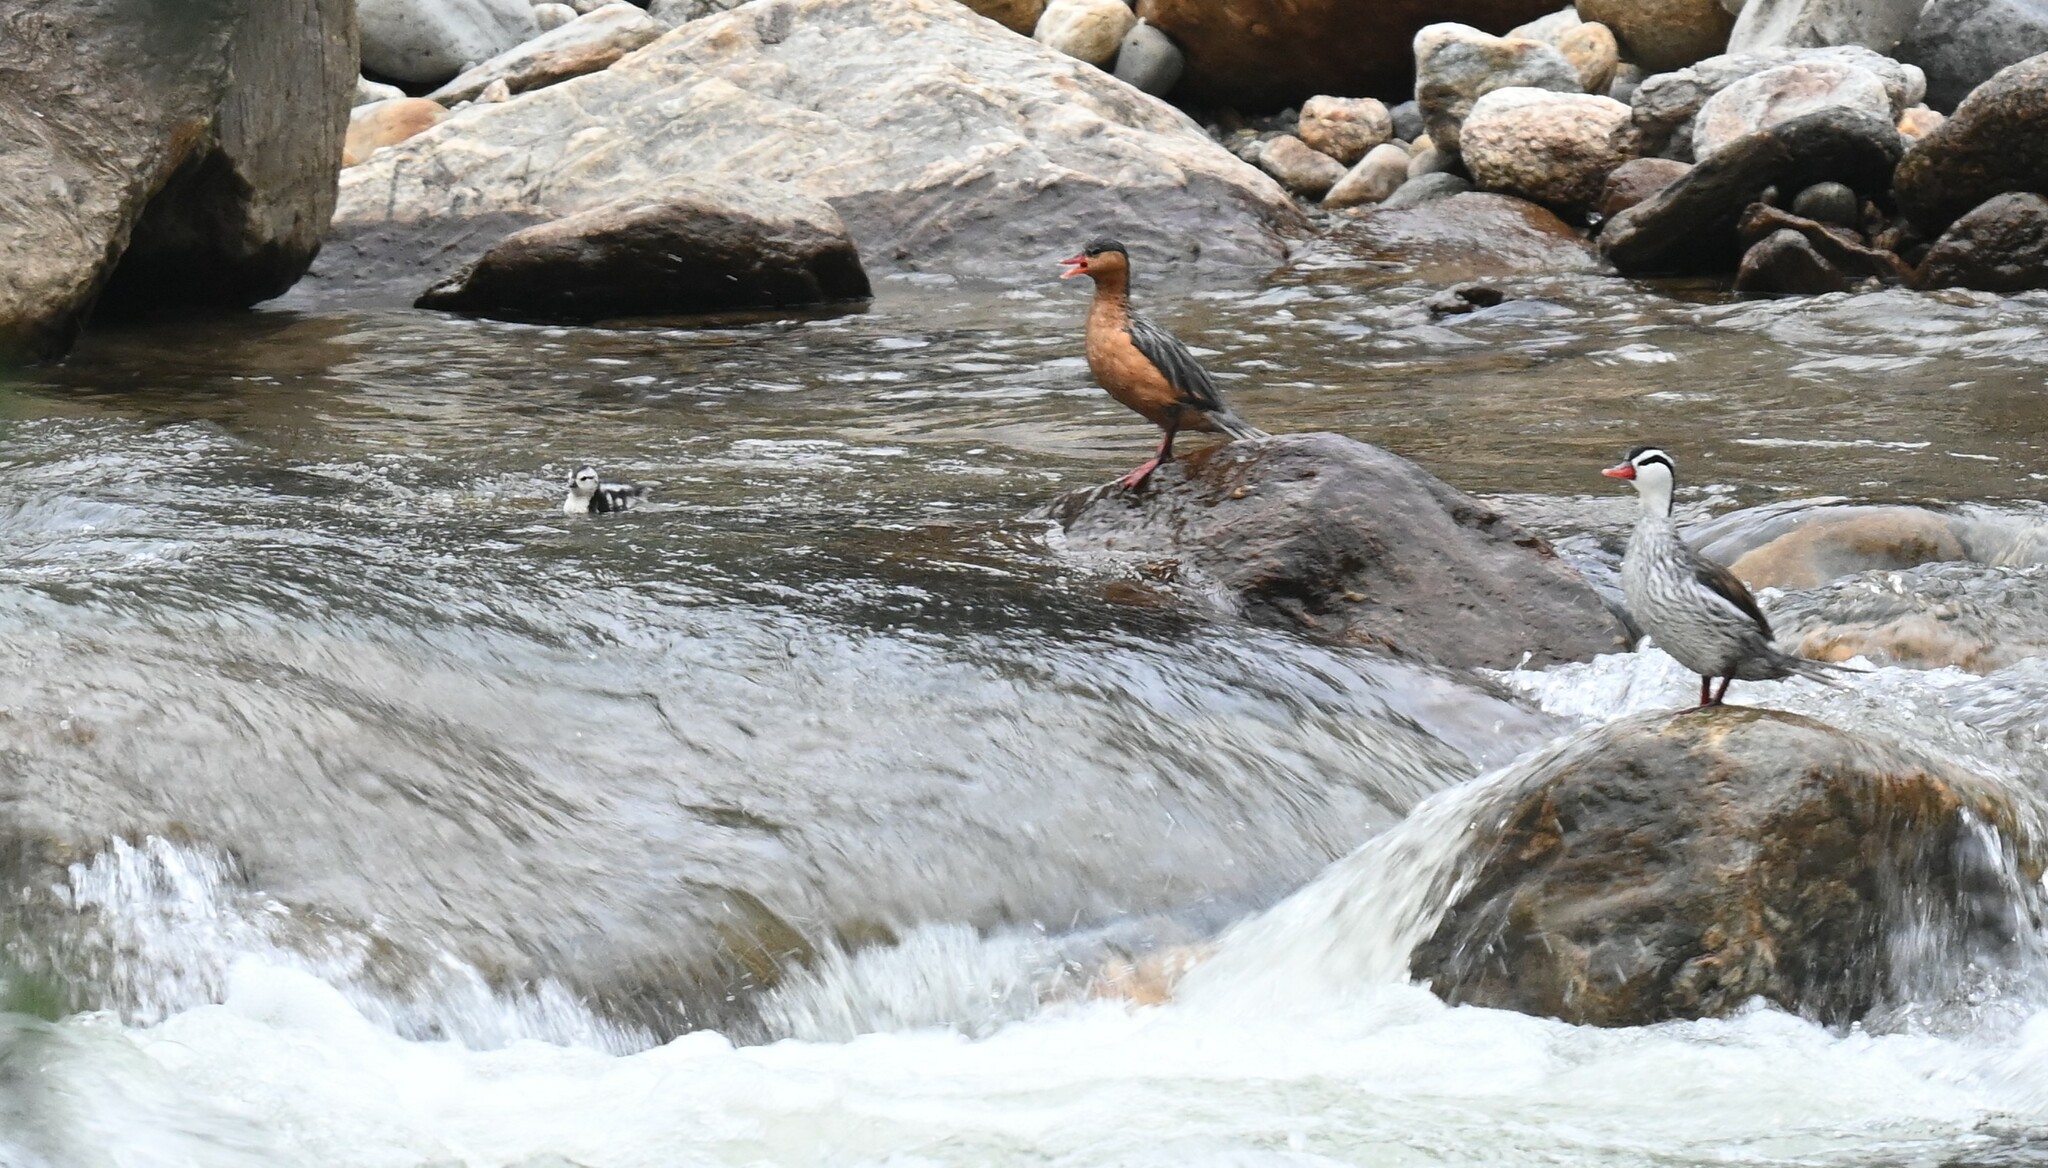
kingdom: Animalia
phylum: Chordata
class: Aves
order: Anseriformes
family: Anatidae
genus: Merganetta
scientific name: Merganetta armata
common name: Torrent duck
